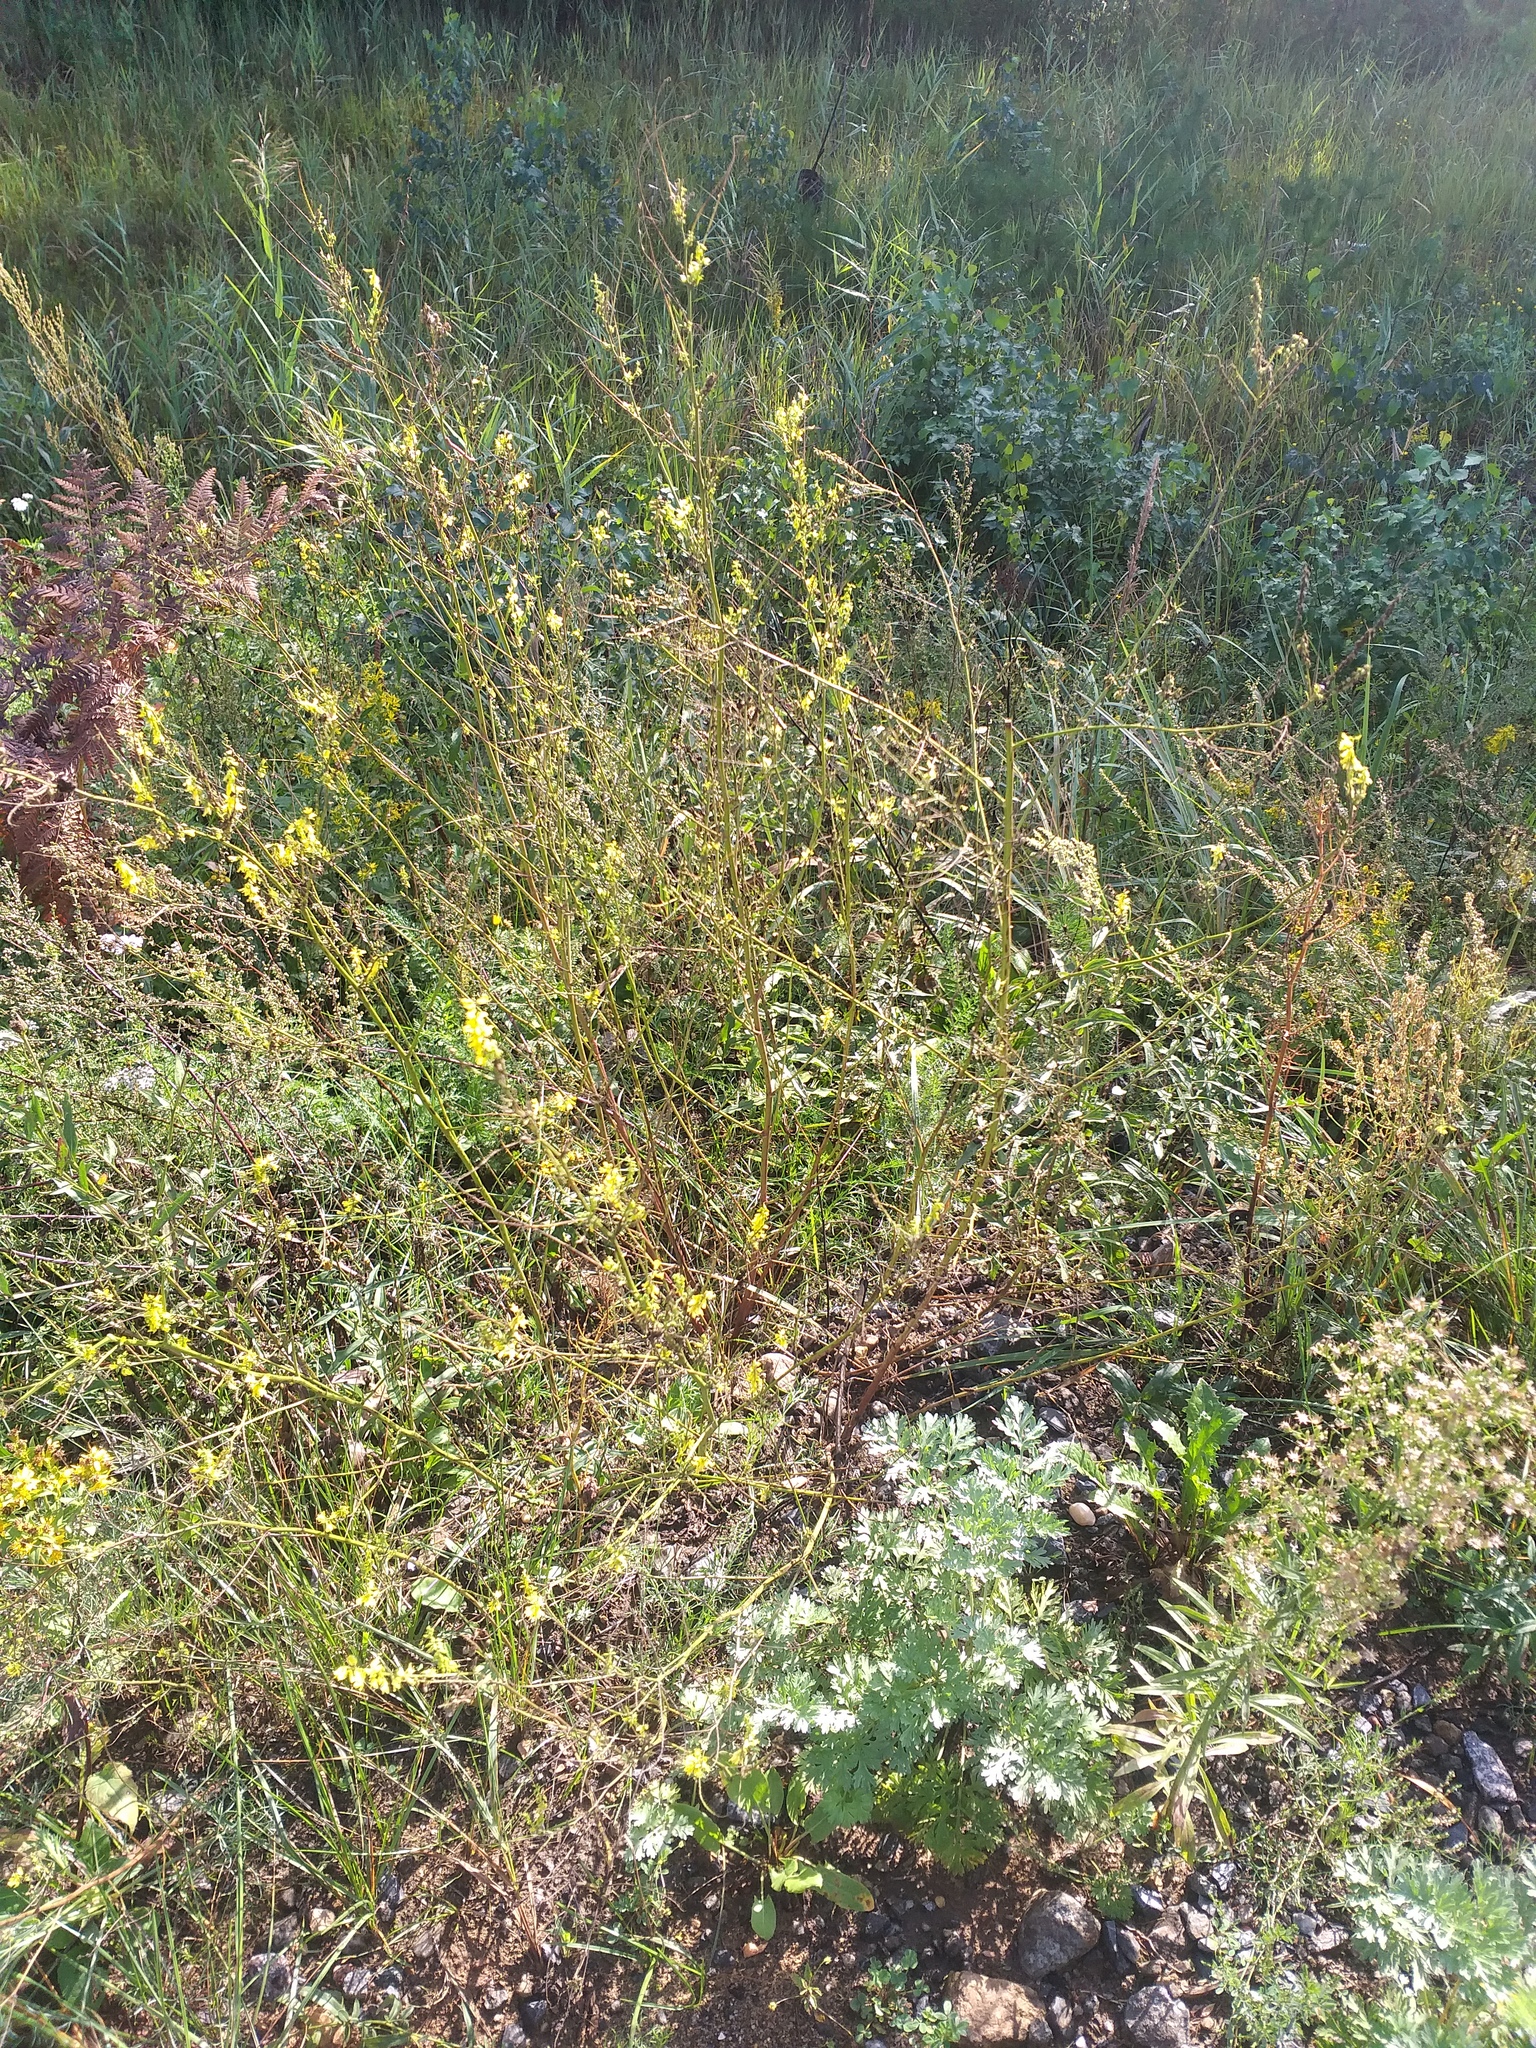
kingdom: Plantae
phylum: Tracheophyta
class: Magnoliopsida
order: Fabales
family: Fabaceae
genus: Melilotus
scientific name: Melilotus officinalis
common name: Sweetclover
